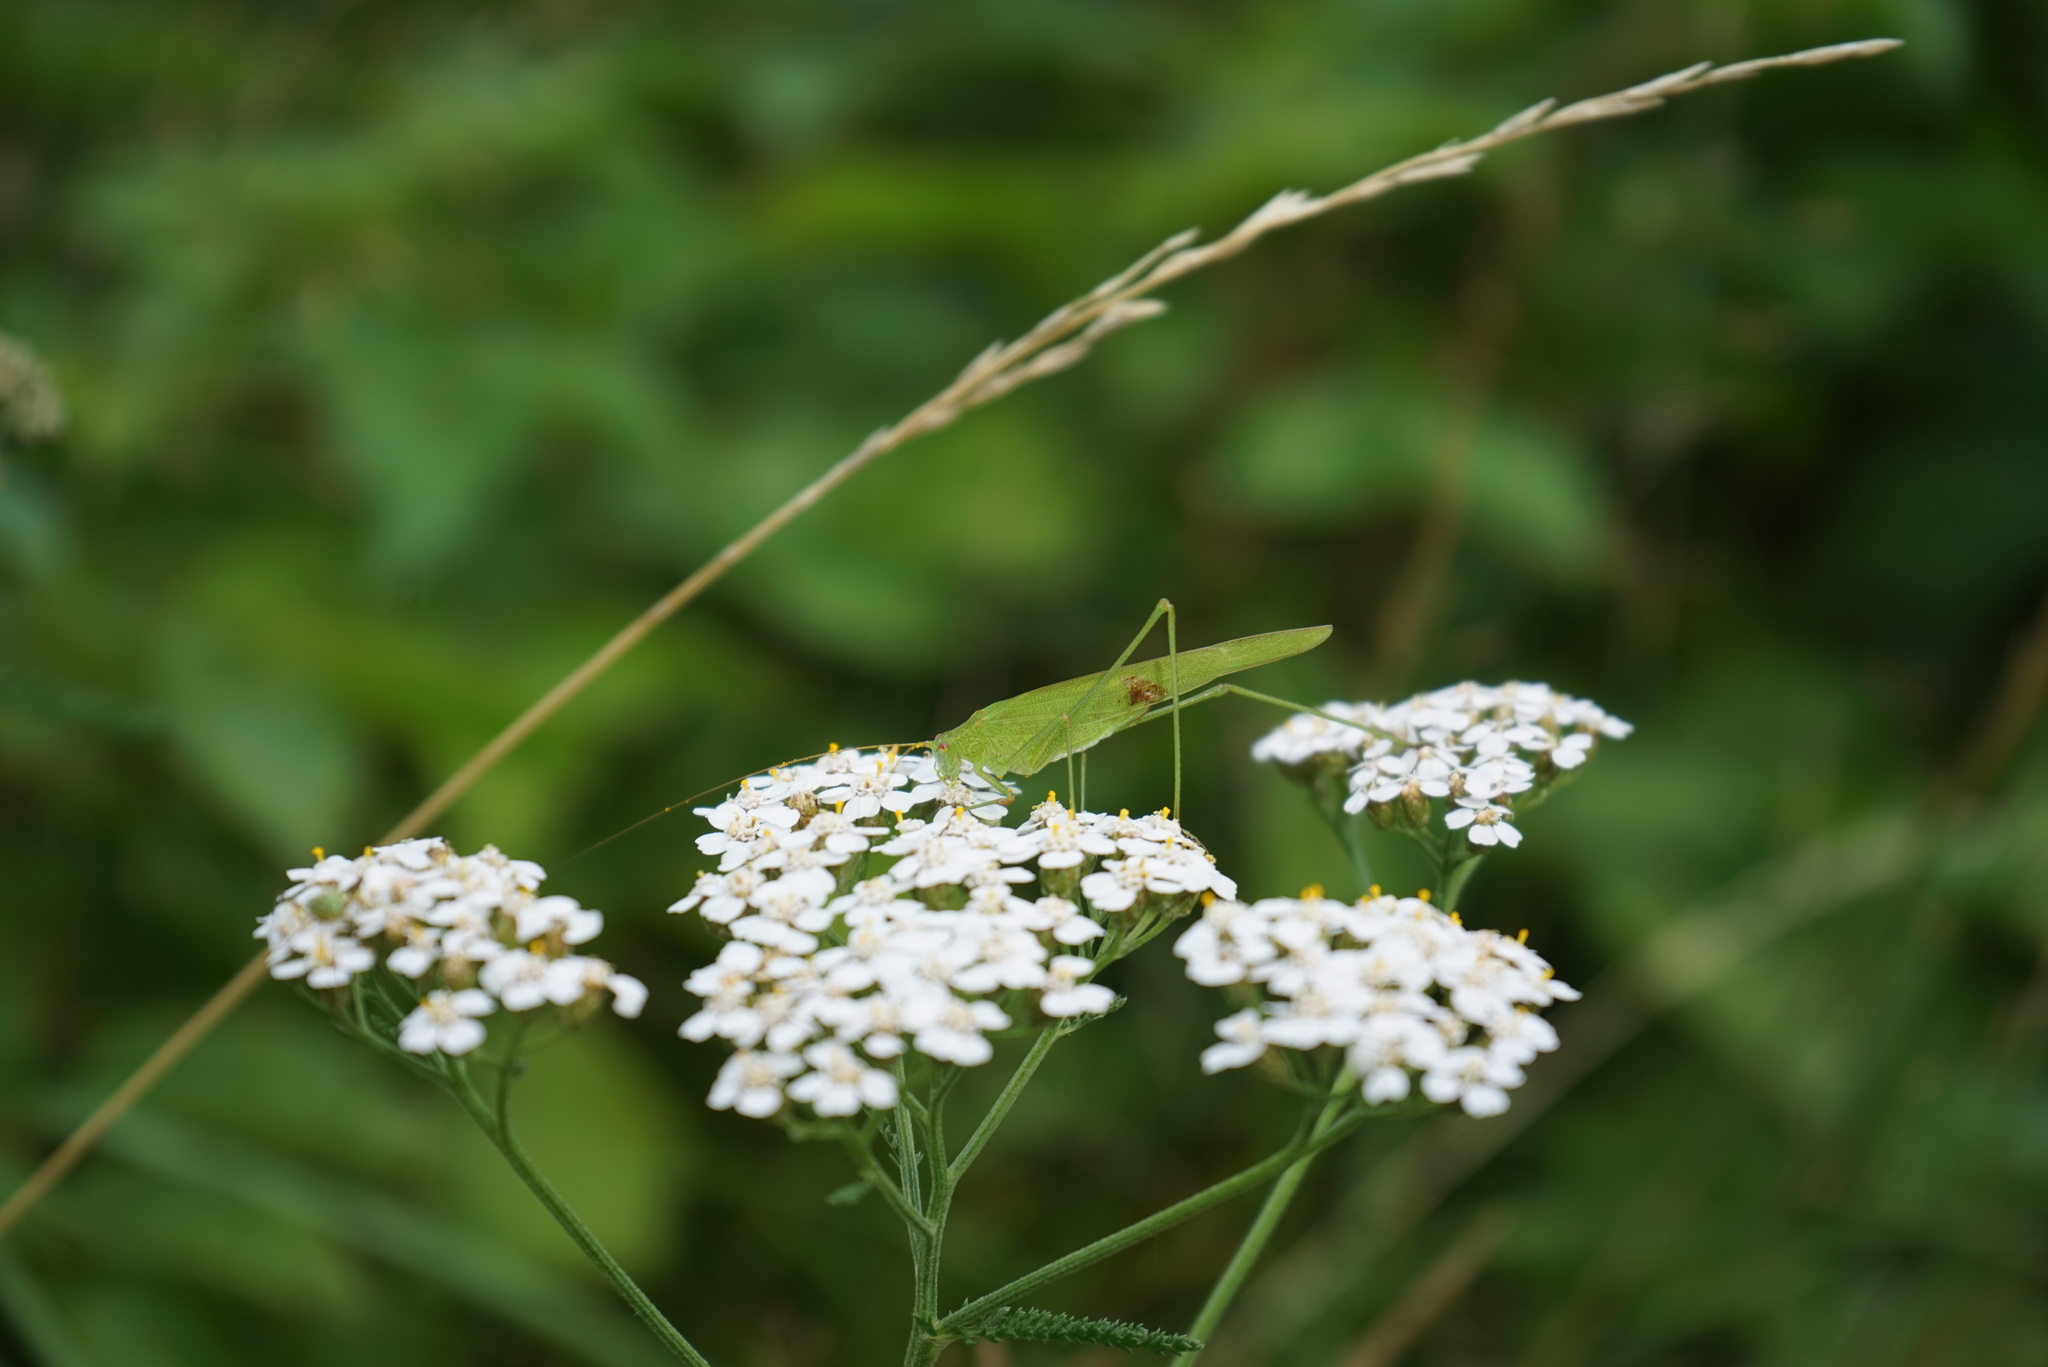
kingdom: Animalia
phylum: Arthropoda
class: Insecta
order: Orthoptera
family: Tettigoniidae
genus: Phaneroptera
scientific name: Phaneroptera falcata
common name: Sickle-bearing bush-cricket
